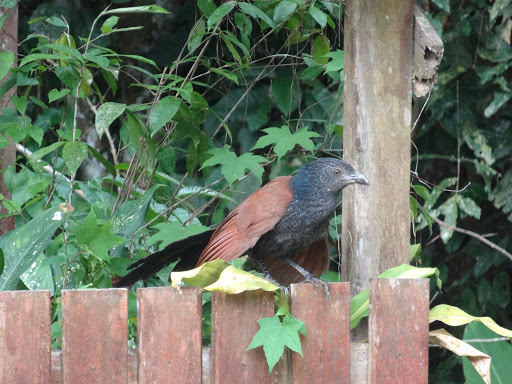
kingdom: Animalia
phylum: Chordata
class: Aves
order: Cuculiformes
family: Cuculidae
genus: Centropus
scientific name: Centropus sinensis
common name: Greater coucal
